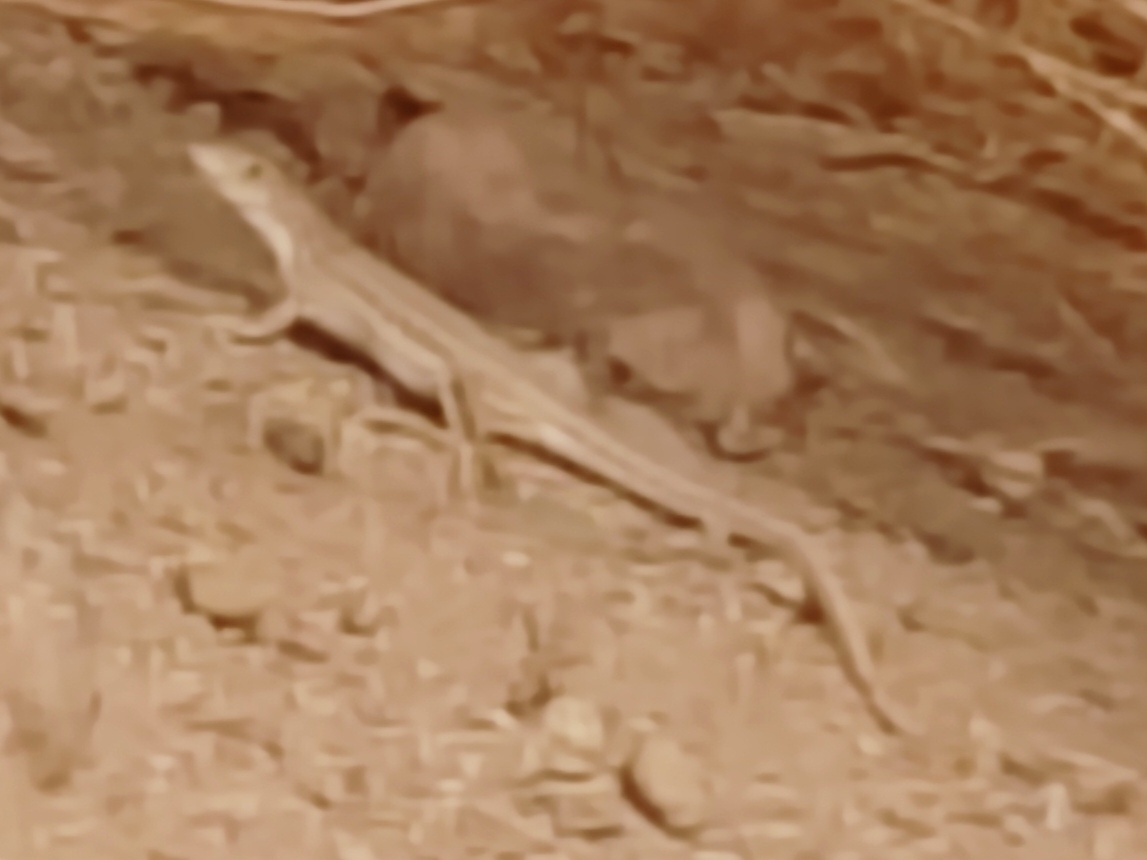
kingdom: Animalia
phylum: Chordata
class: Squamata
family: Lacertidae
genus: Acanthodactylus
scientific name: Acanthodactylus boskianus
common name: Bosc’s fringe-toed lizard
